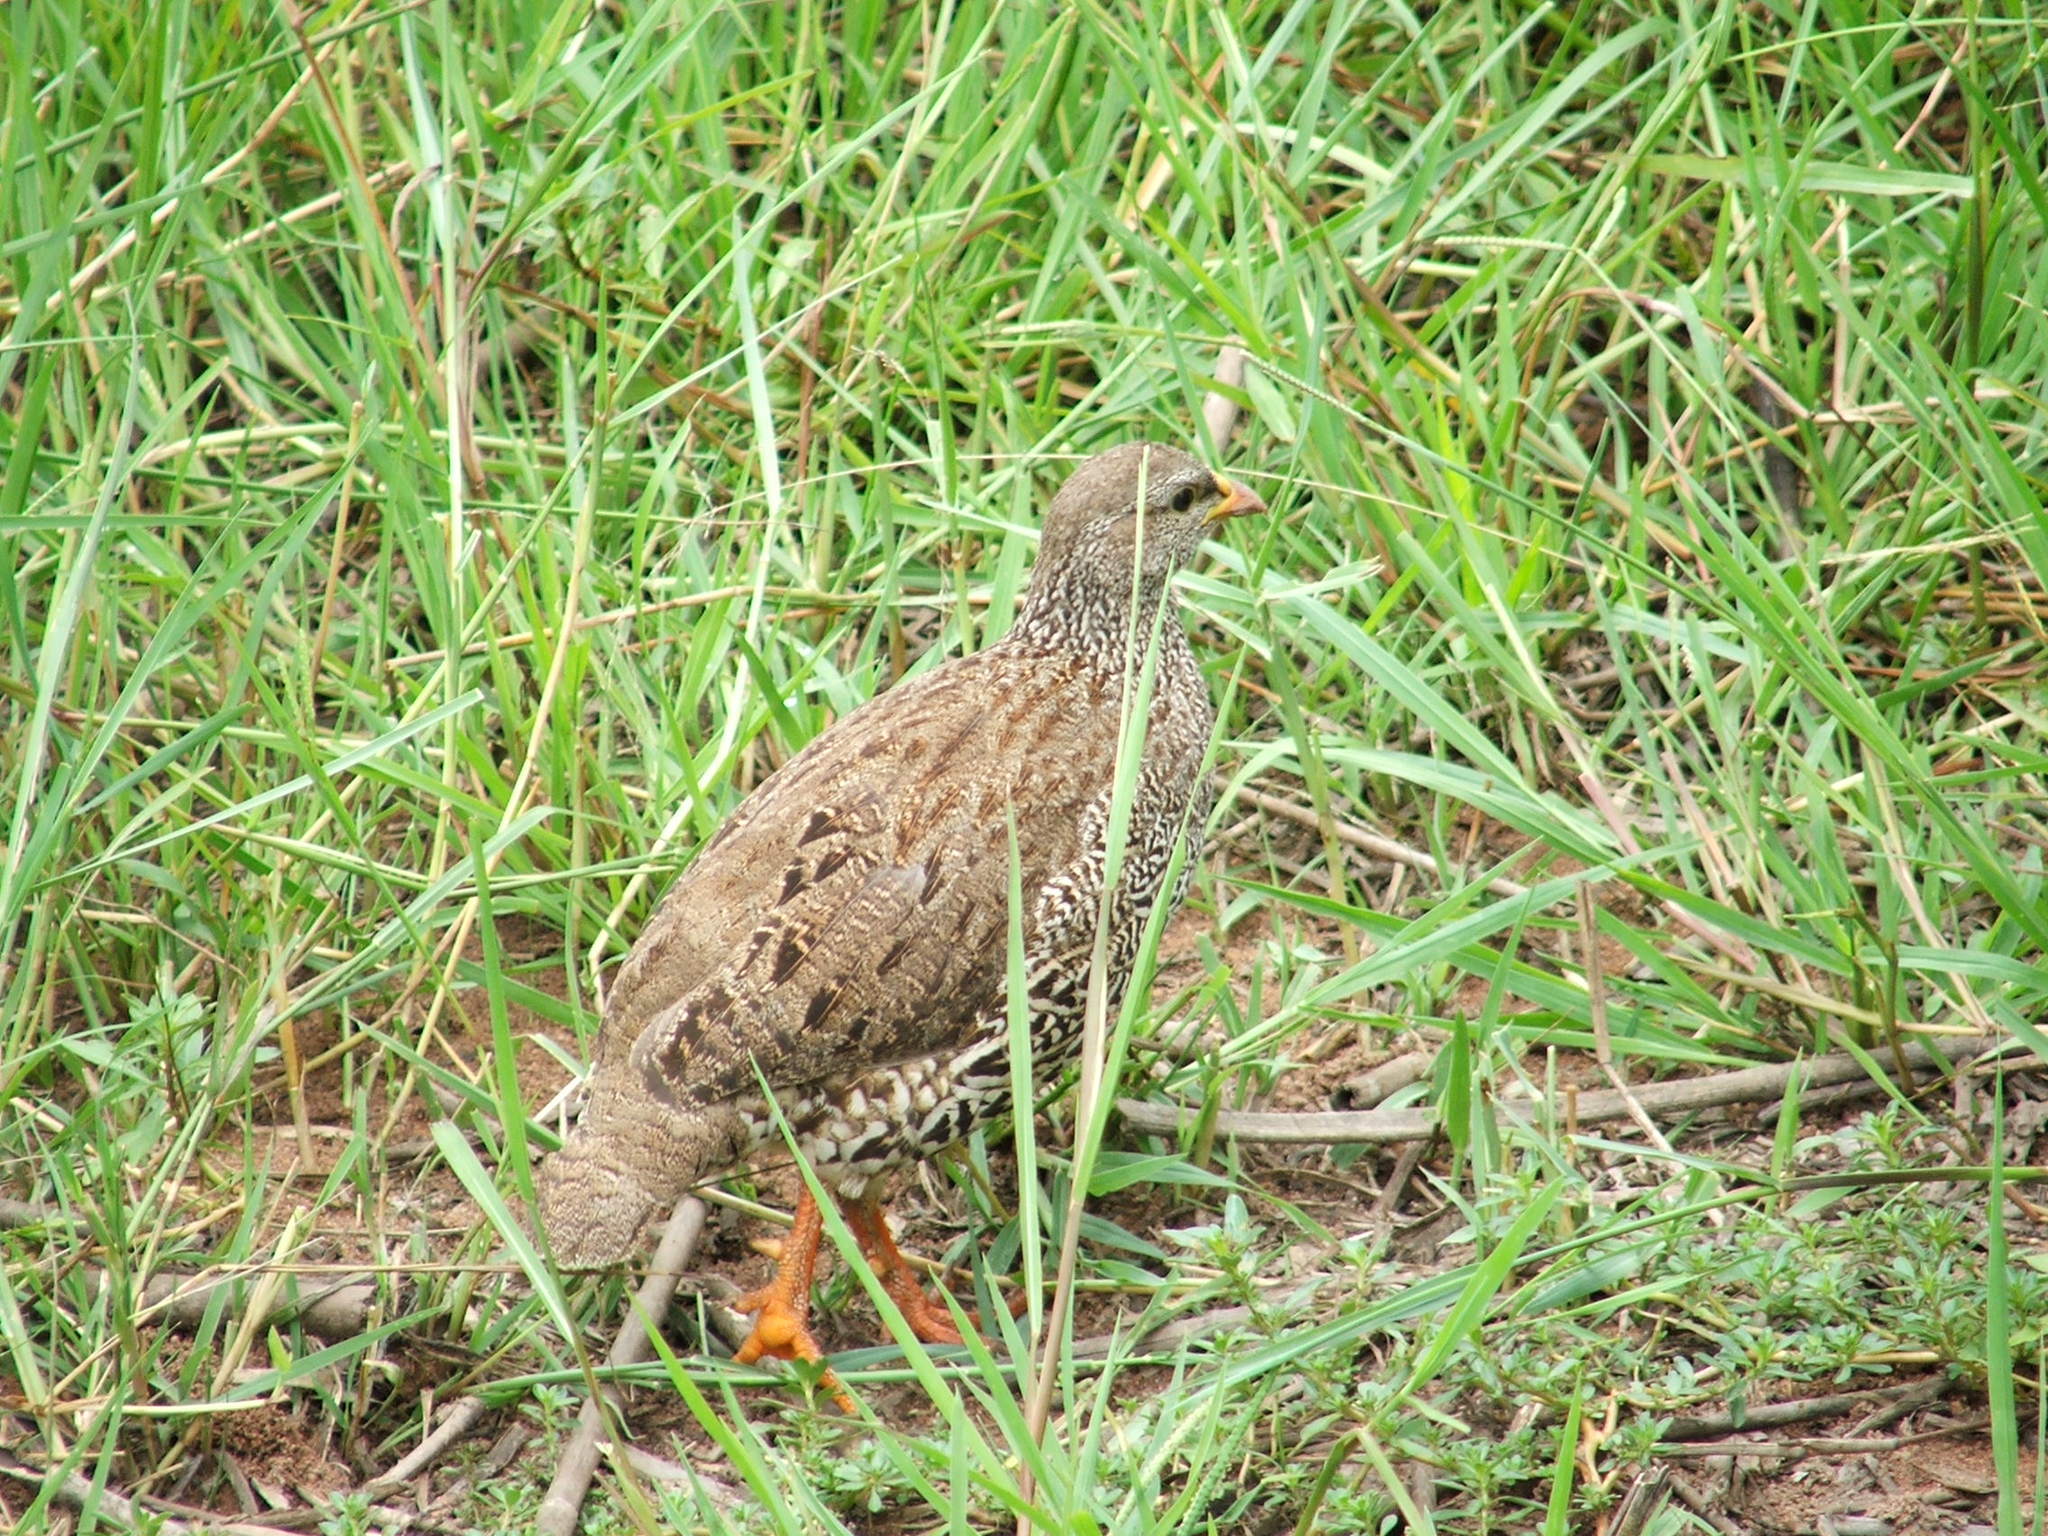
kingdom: Animalia
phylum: Chordata
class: Aves
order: Galliformes
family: Phasianidae
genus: Pternistis
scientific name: Pternistis natalensis
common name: Natal spurfowl
